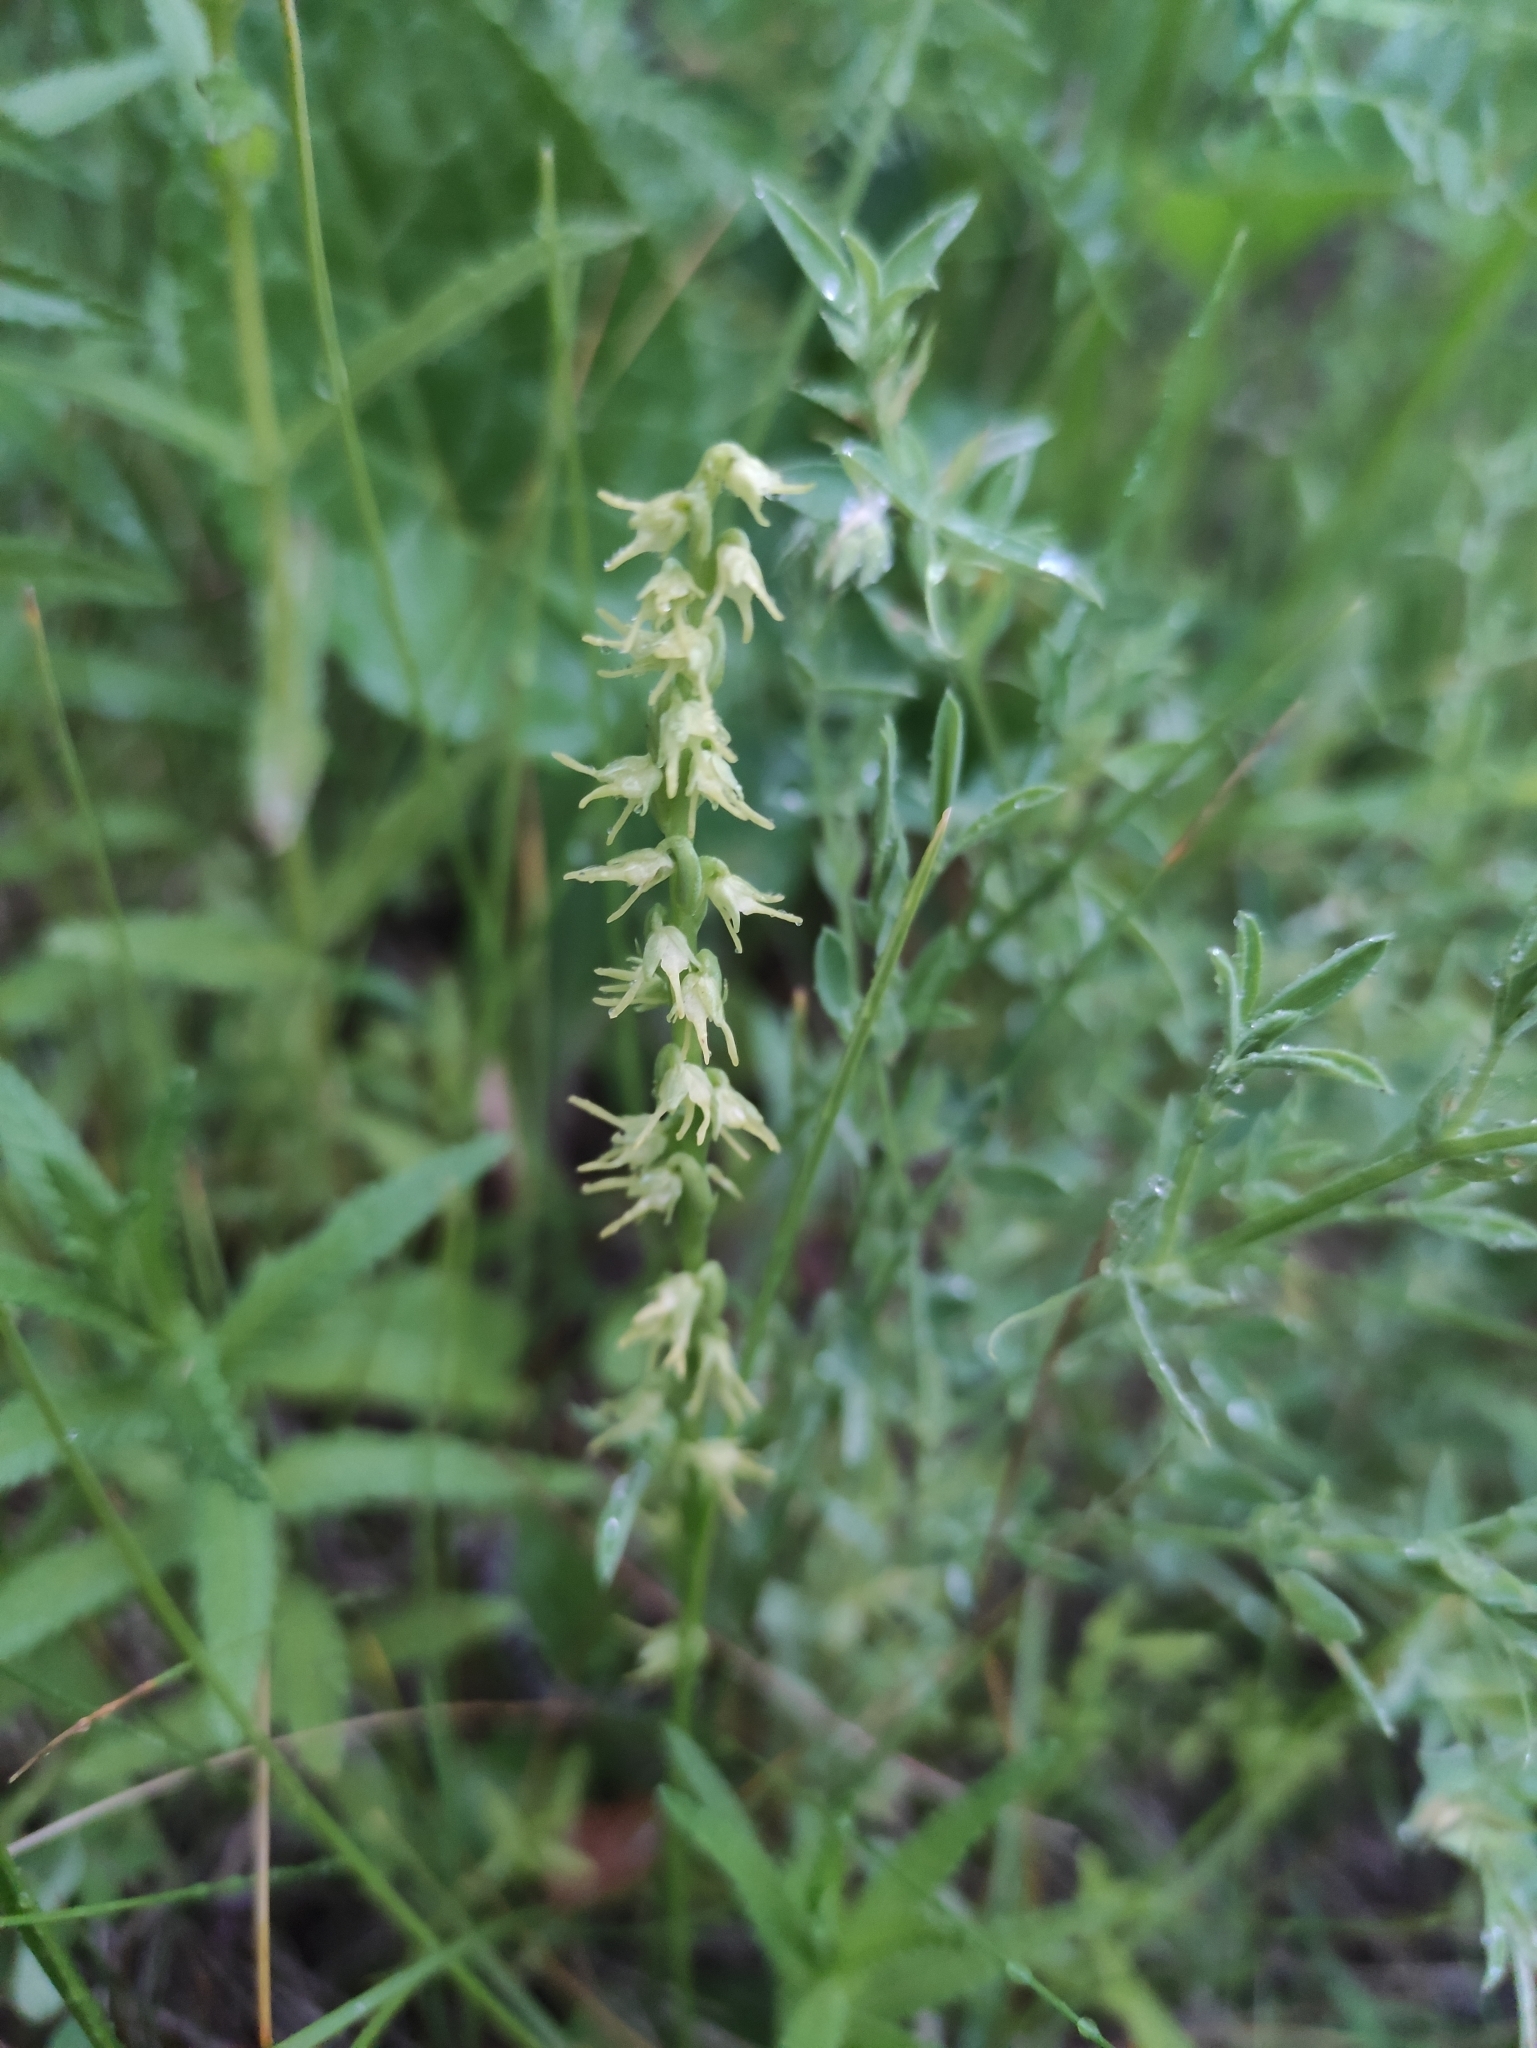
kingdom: Plantae
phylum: Tracheophyta
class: Liliopsida
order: Asparagales
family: Orchidaceae
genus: Herminium
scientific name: Herminium monorchis
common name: Musk orchid
